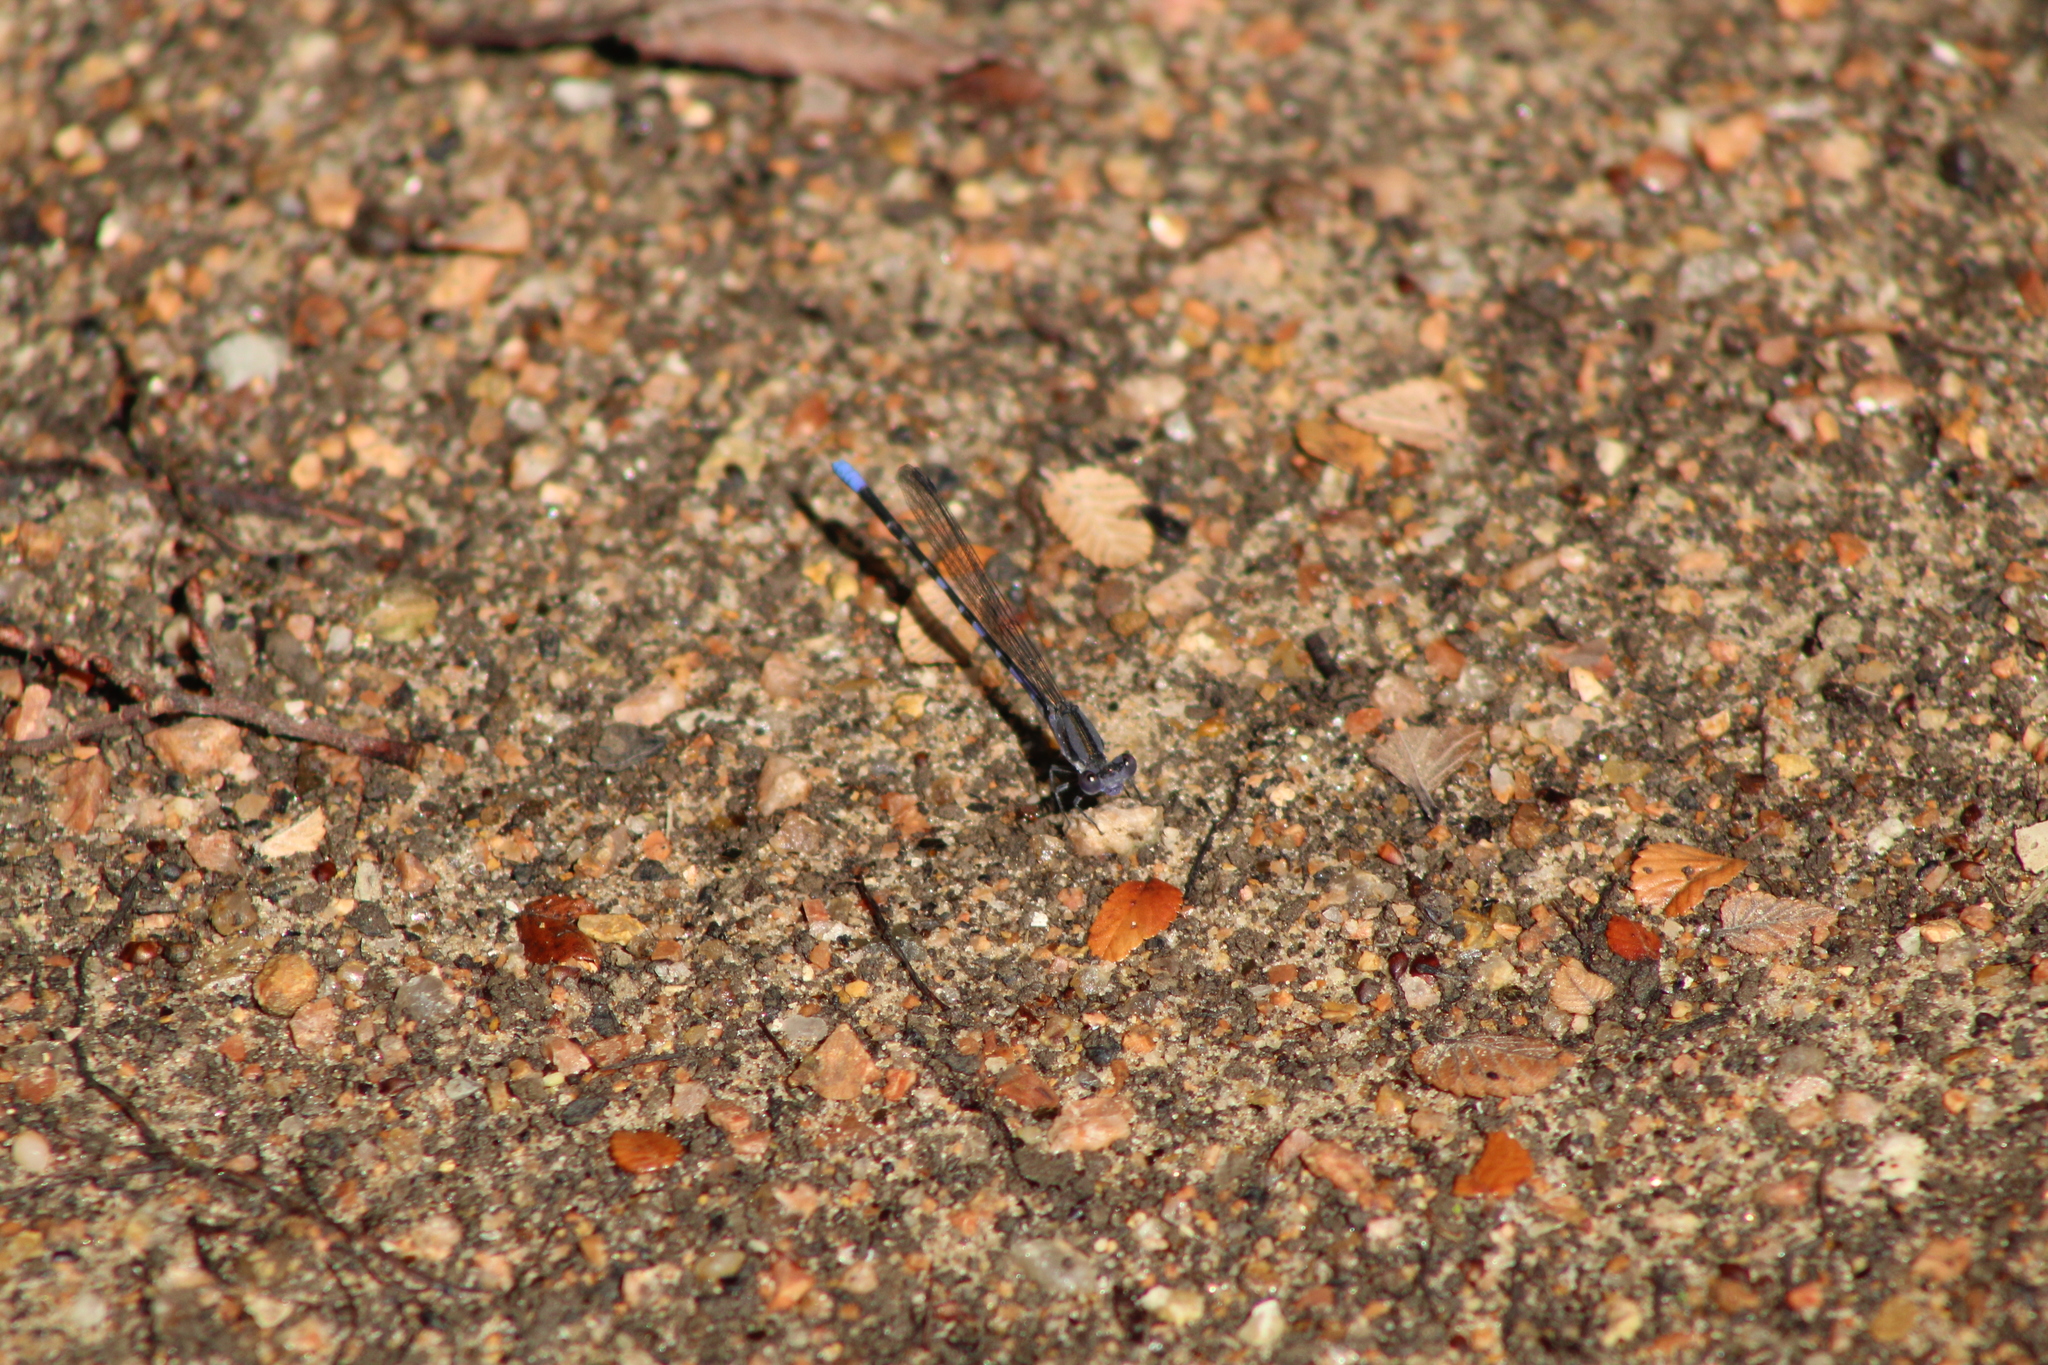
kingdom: Animalia
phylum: Arthropoda
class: Insecta
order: Odonata
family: Coenagrionidae
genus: Argia
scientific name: Argia immunda
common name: Kiowa dancer
